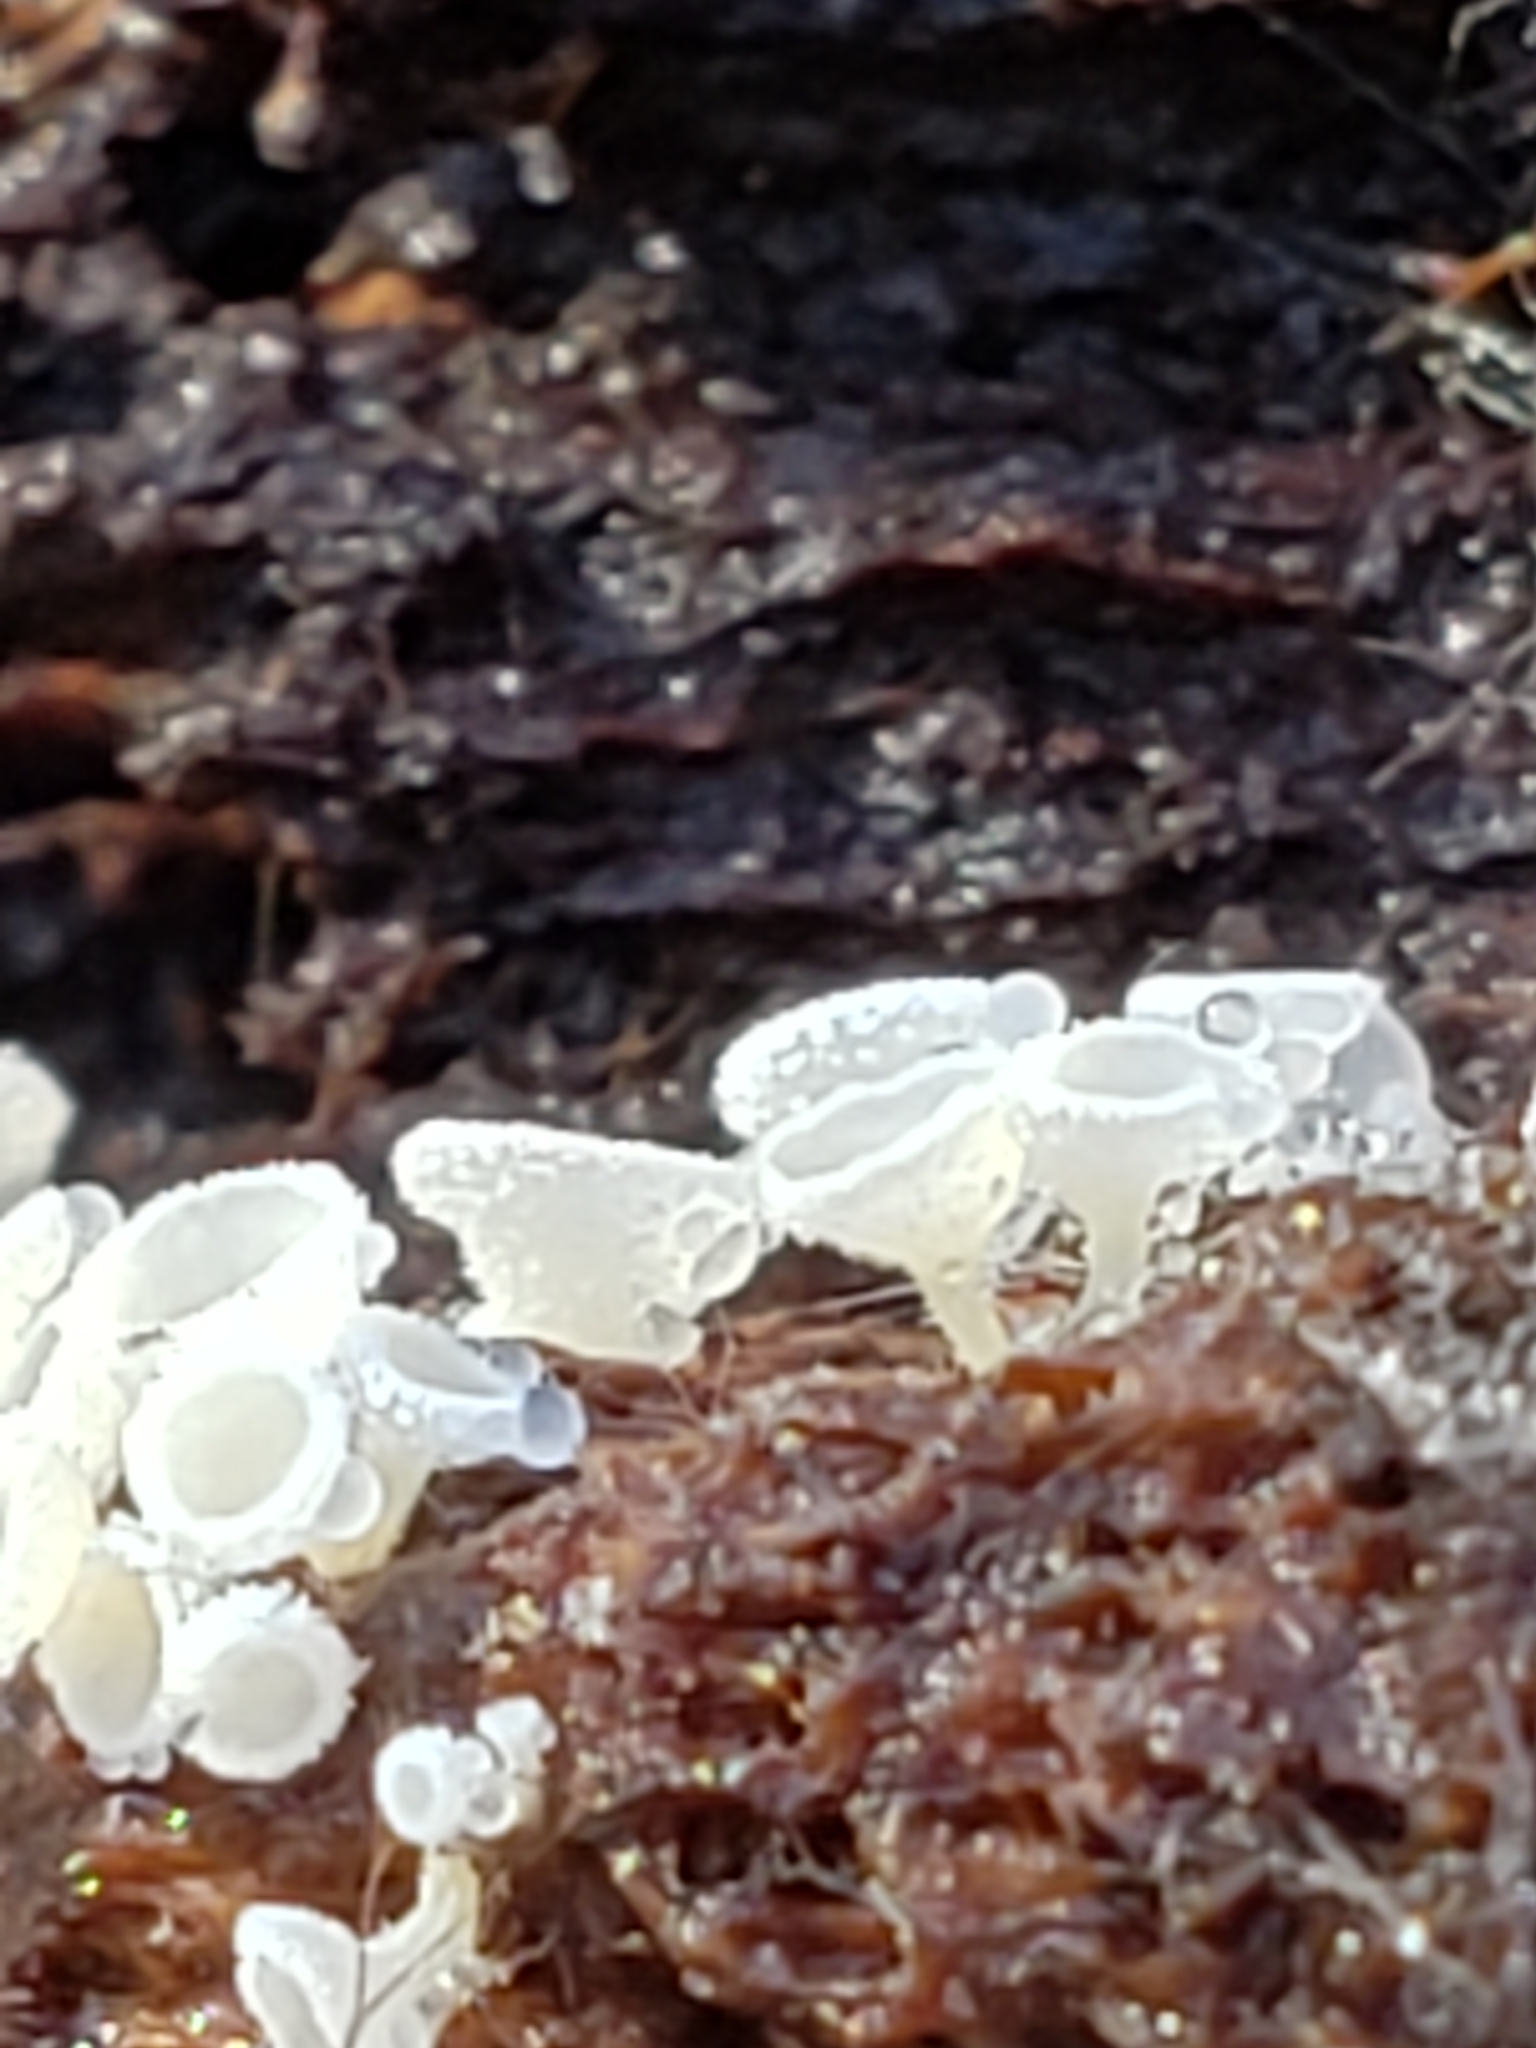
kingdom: Fungi
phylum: Ascomycota
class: Leotiomycetes
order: Helotiales
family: Lachnaceae
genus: Lachnum
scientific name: Lachnum virgineum
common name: Snowy disco
